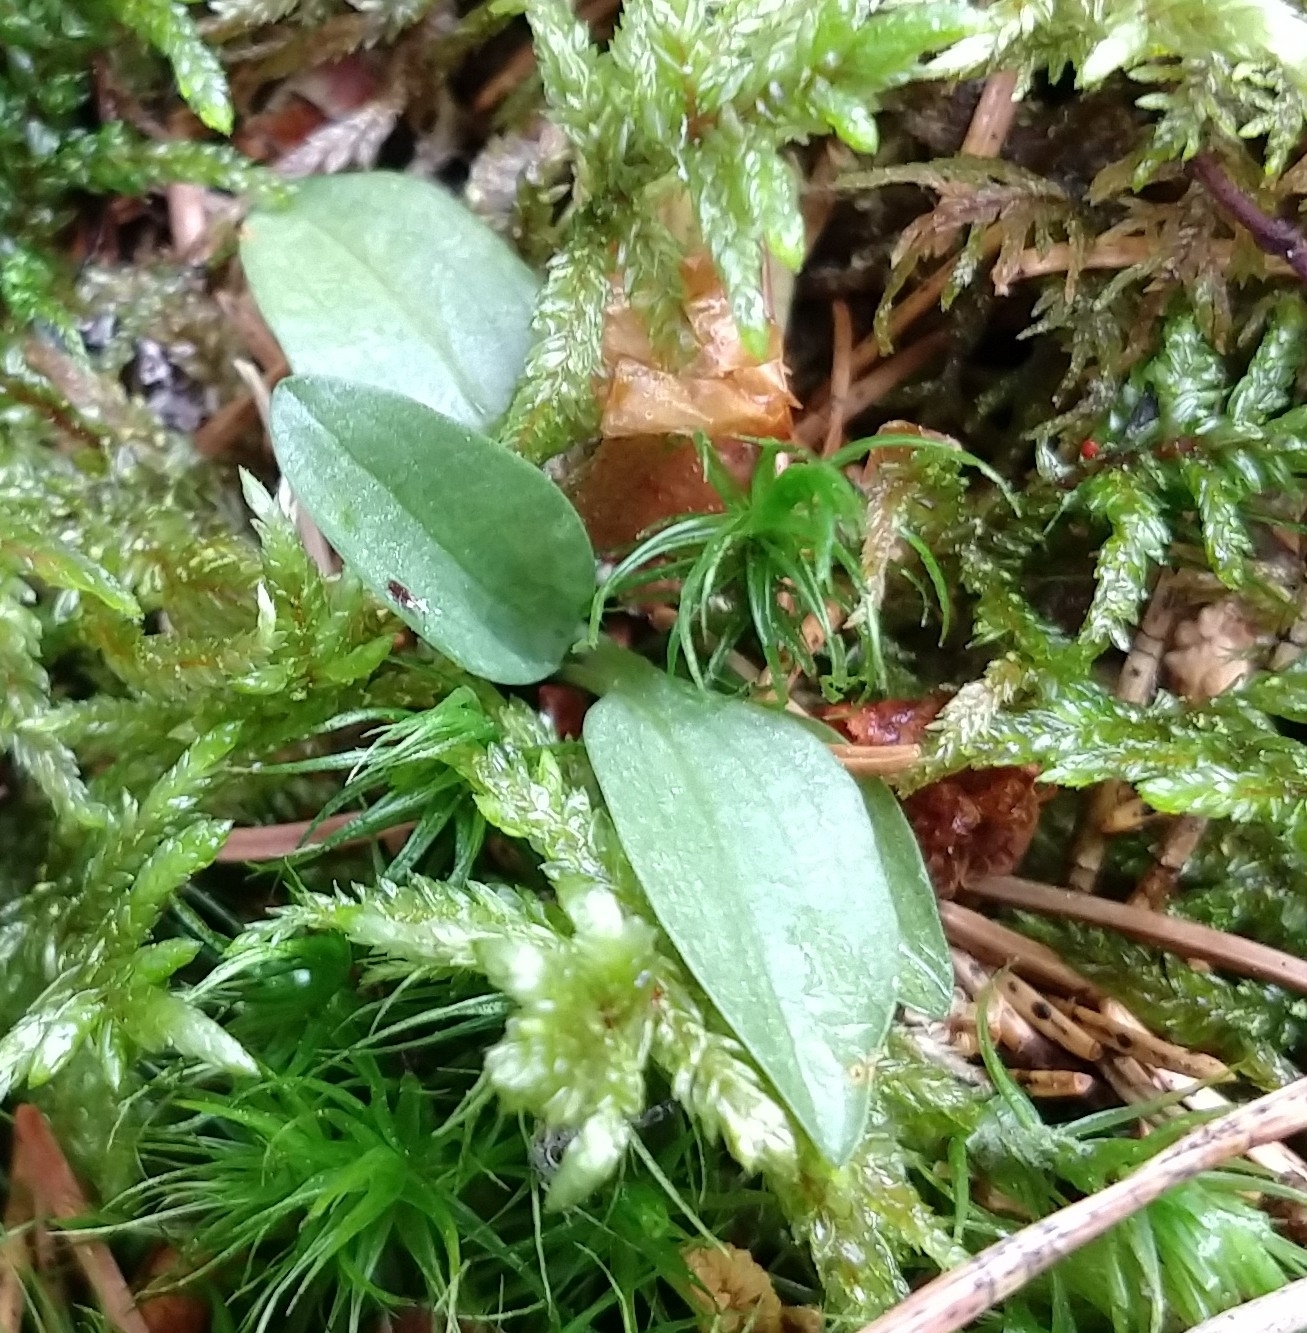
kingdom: Plantae
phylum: Tracheophyta
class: Liliopsida
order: Asparagales
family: Orchidaceae
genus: Goodyera
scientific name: Goodyera repens
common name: Creeping lady's-tresses
